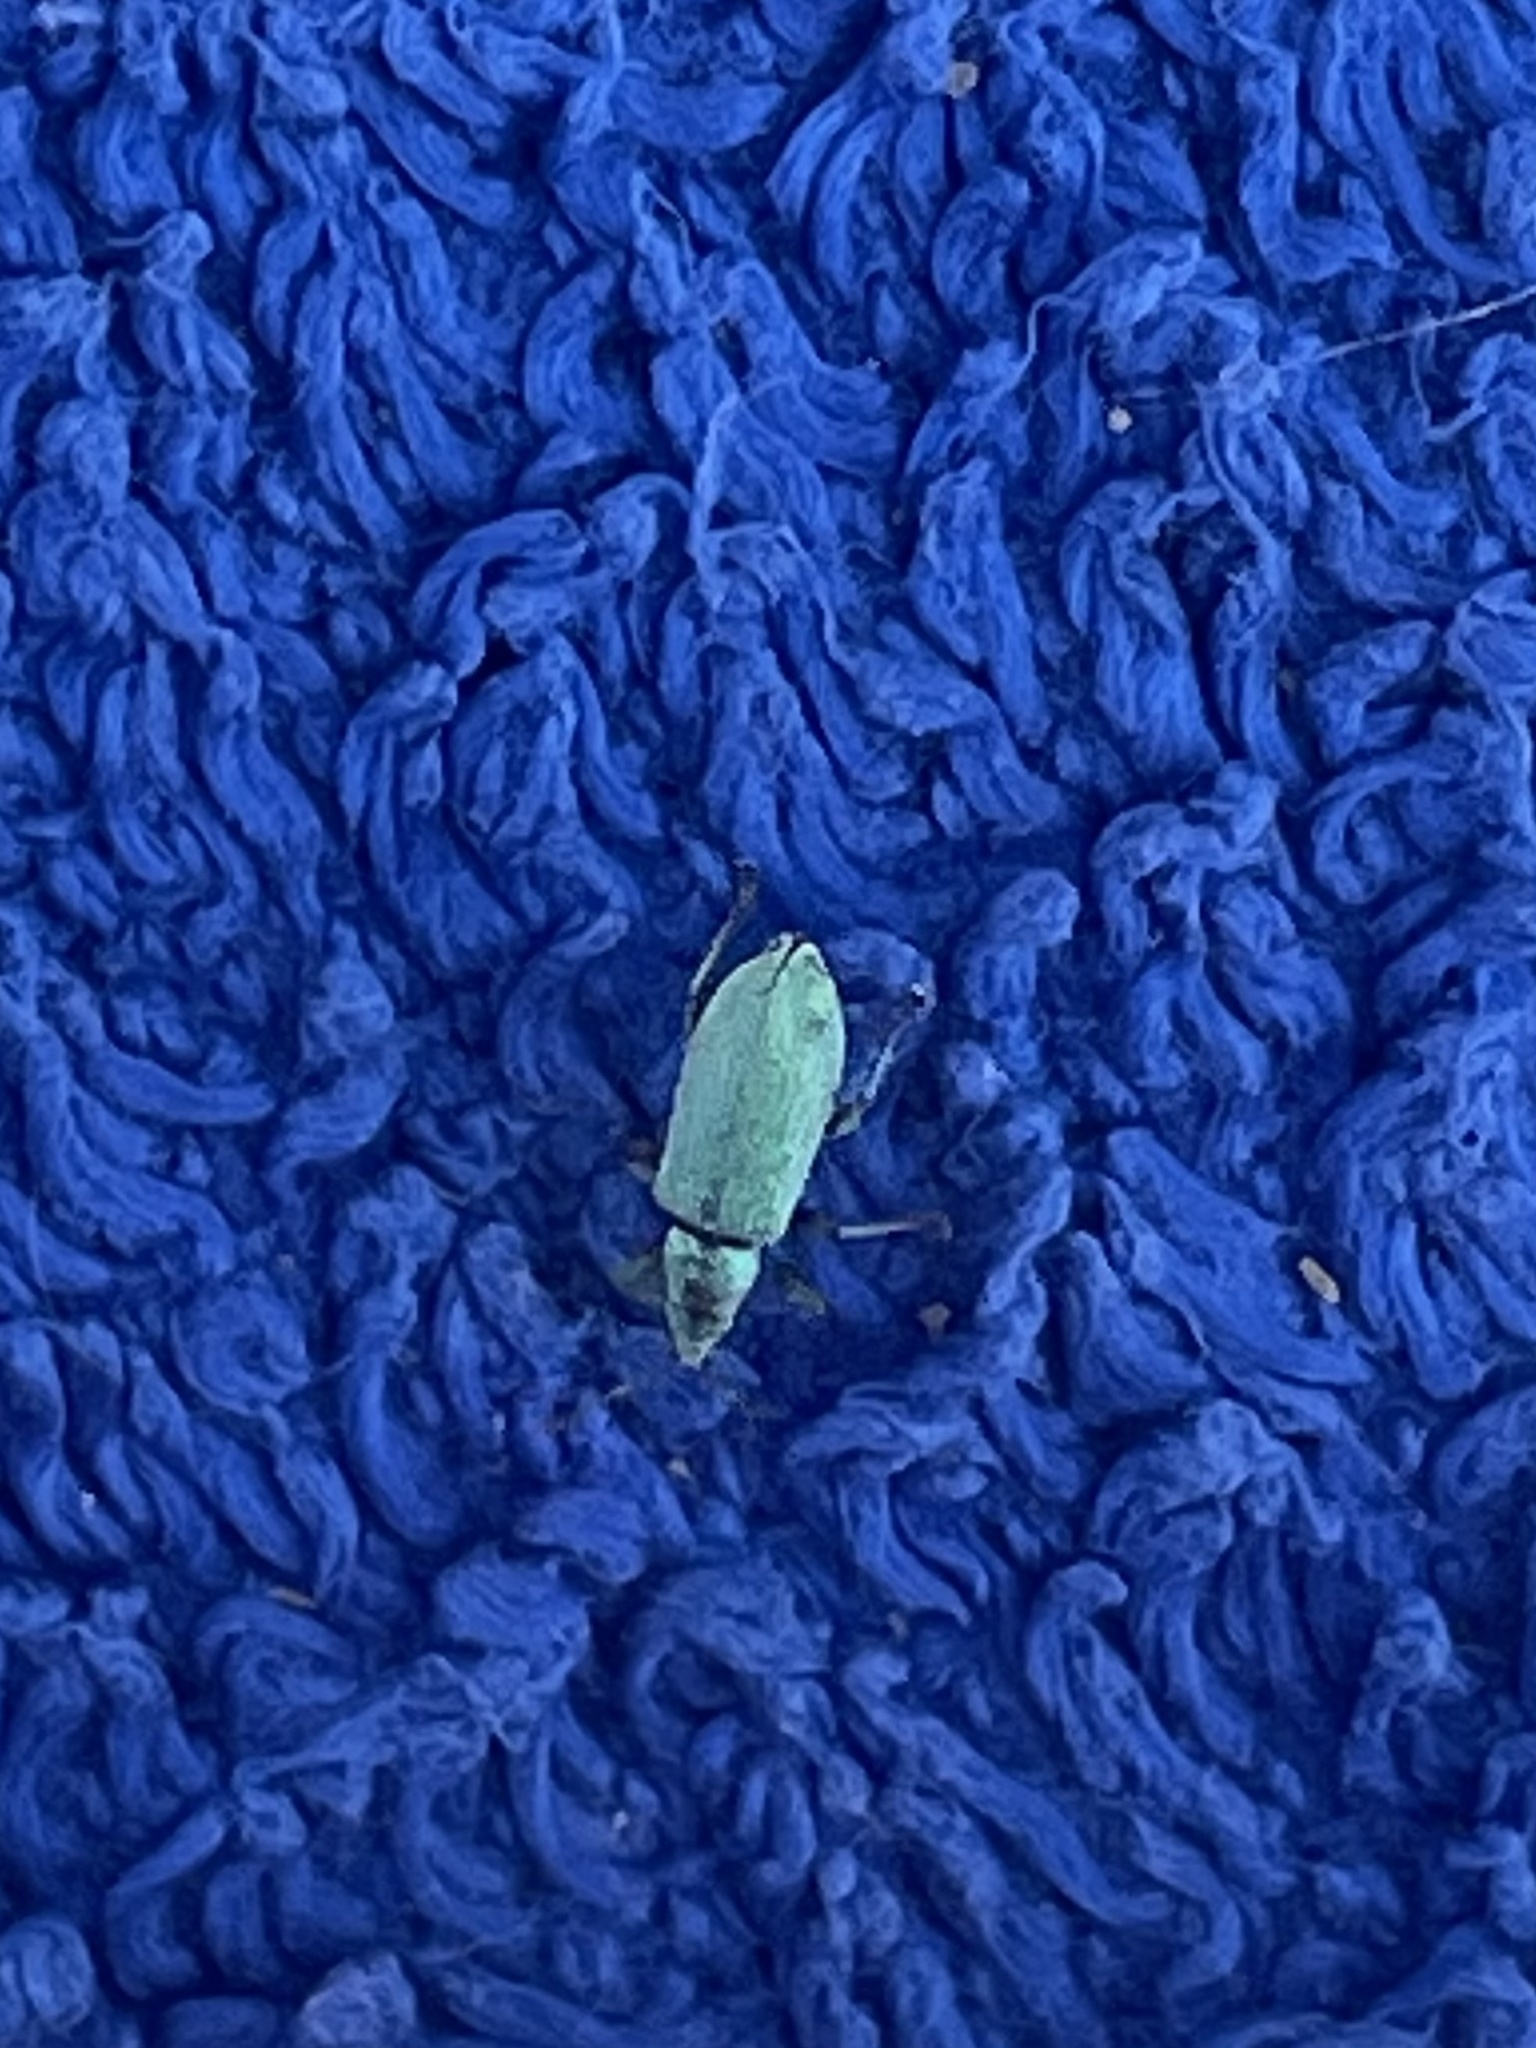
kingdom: Animalia
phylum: Arthropoda
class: Insecta
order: Coleoptera
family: Curculionidae
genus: Phyllobius
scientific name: Phyllobius maculicornis
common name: Green leaf weevil
